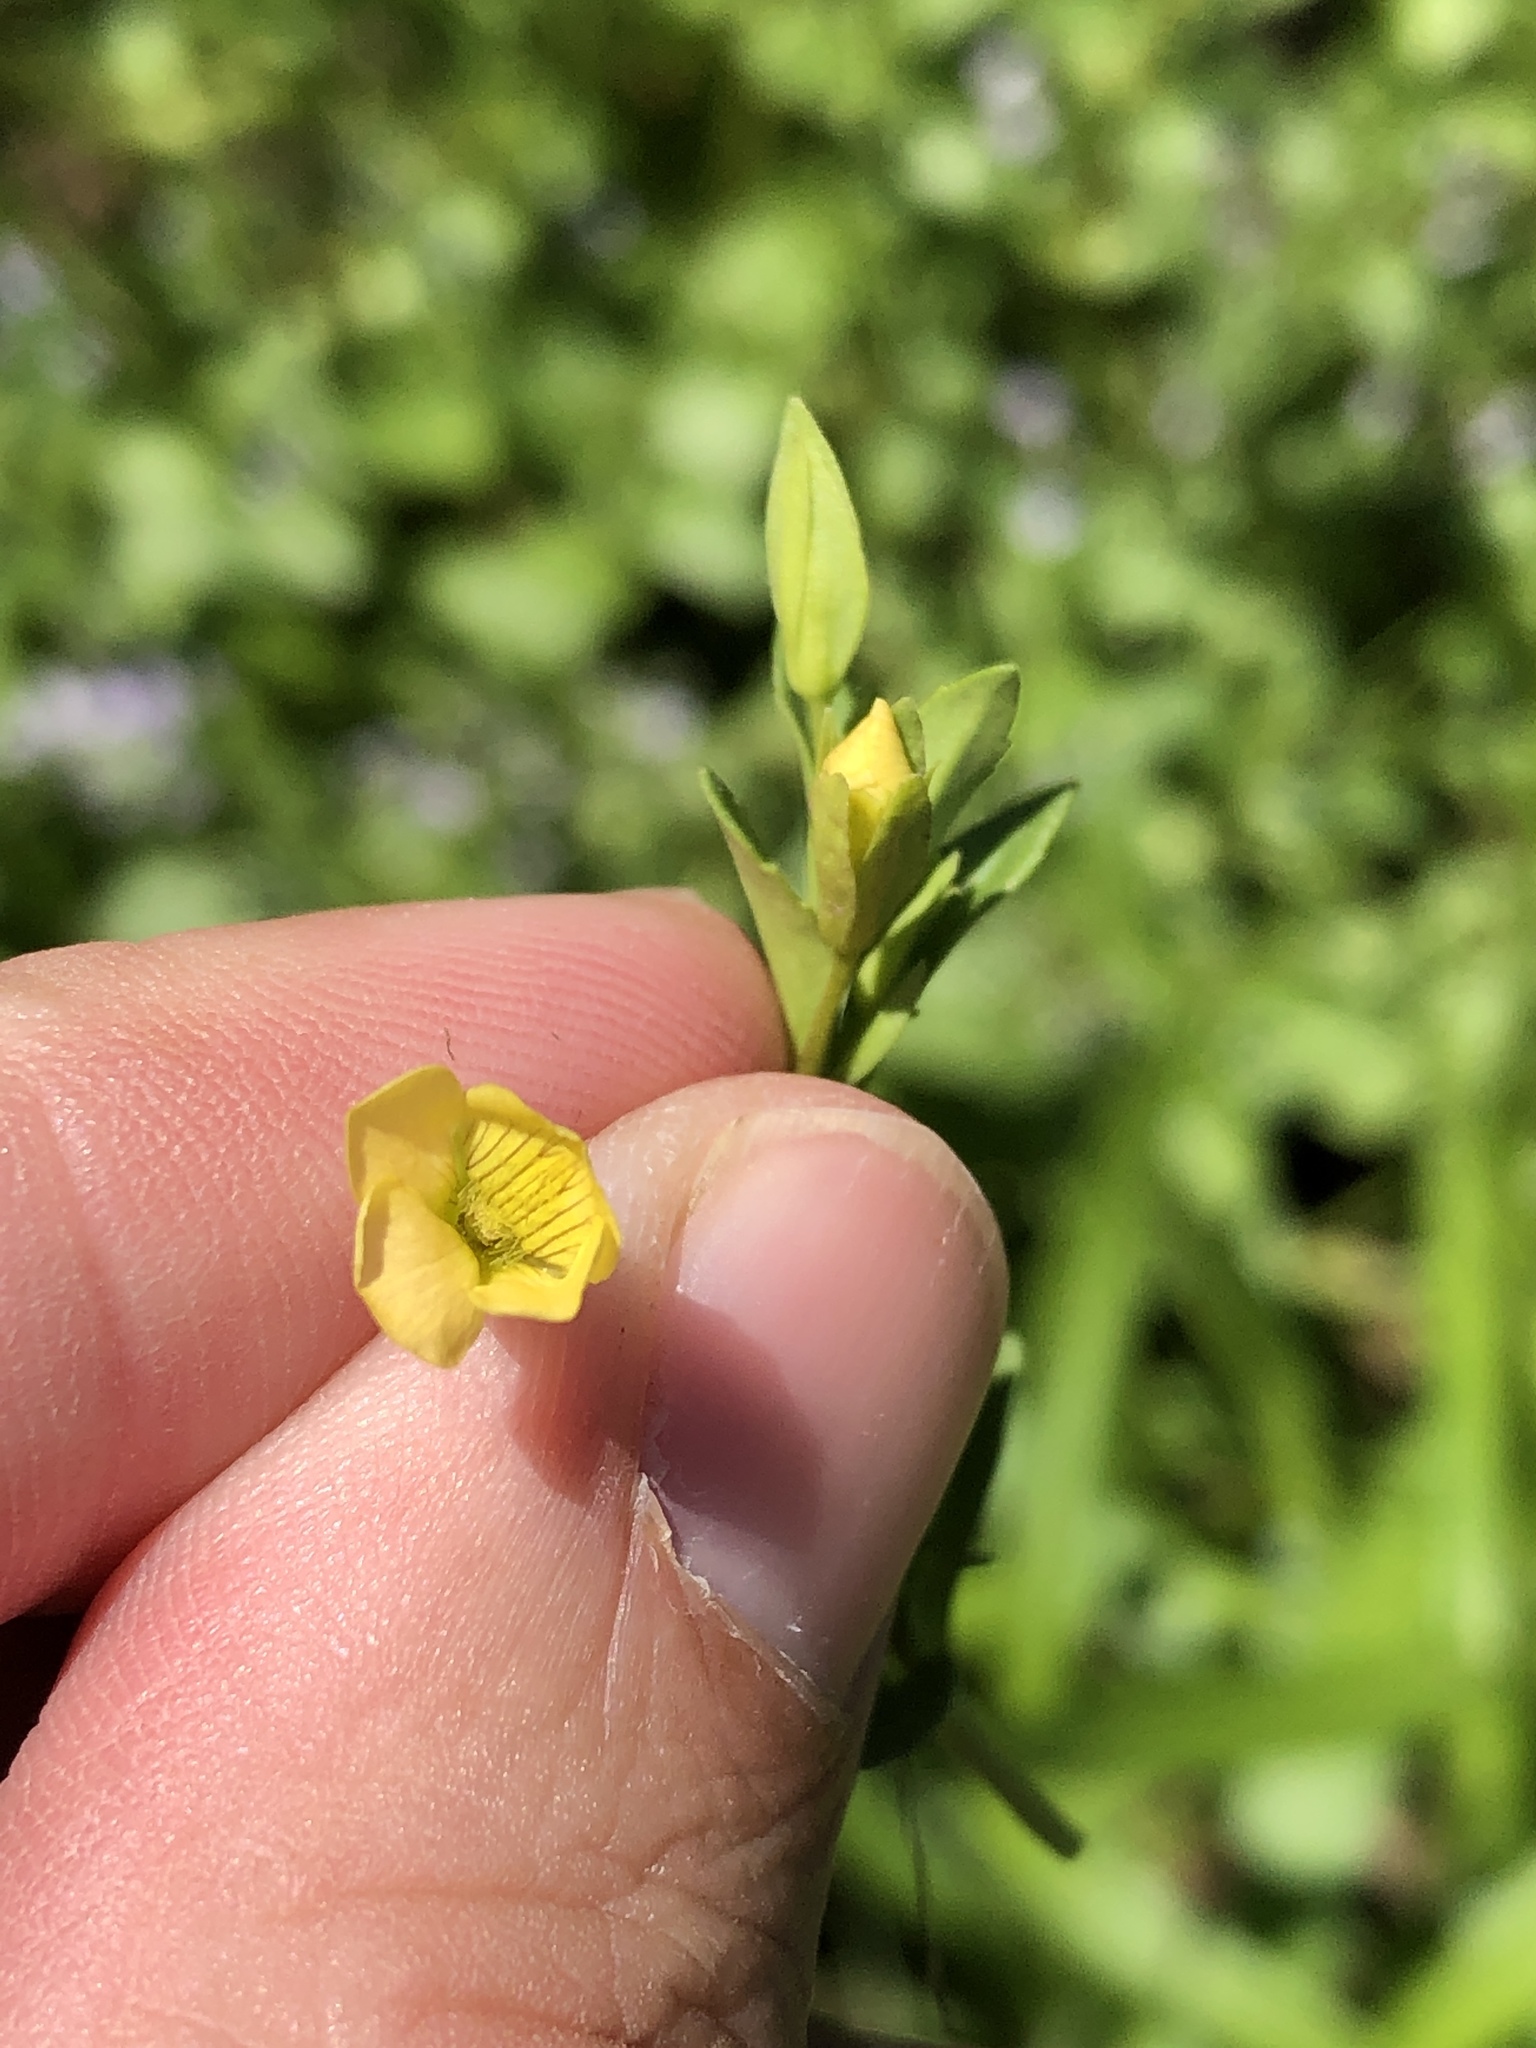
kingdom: Plantae
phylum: Tracheophyta
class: Magnoliopsida
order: Lamiales
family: Plantaginaceae
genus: Mecardonia
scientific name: Mecardonia procumbens
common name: Baby jump-up
